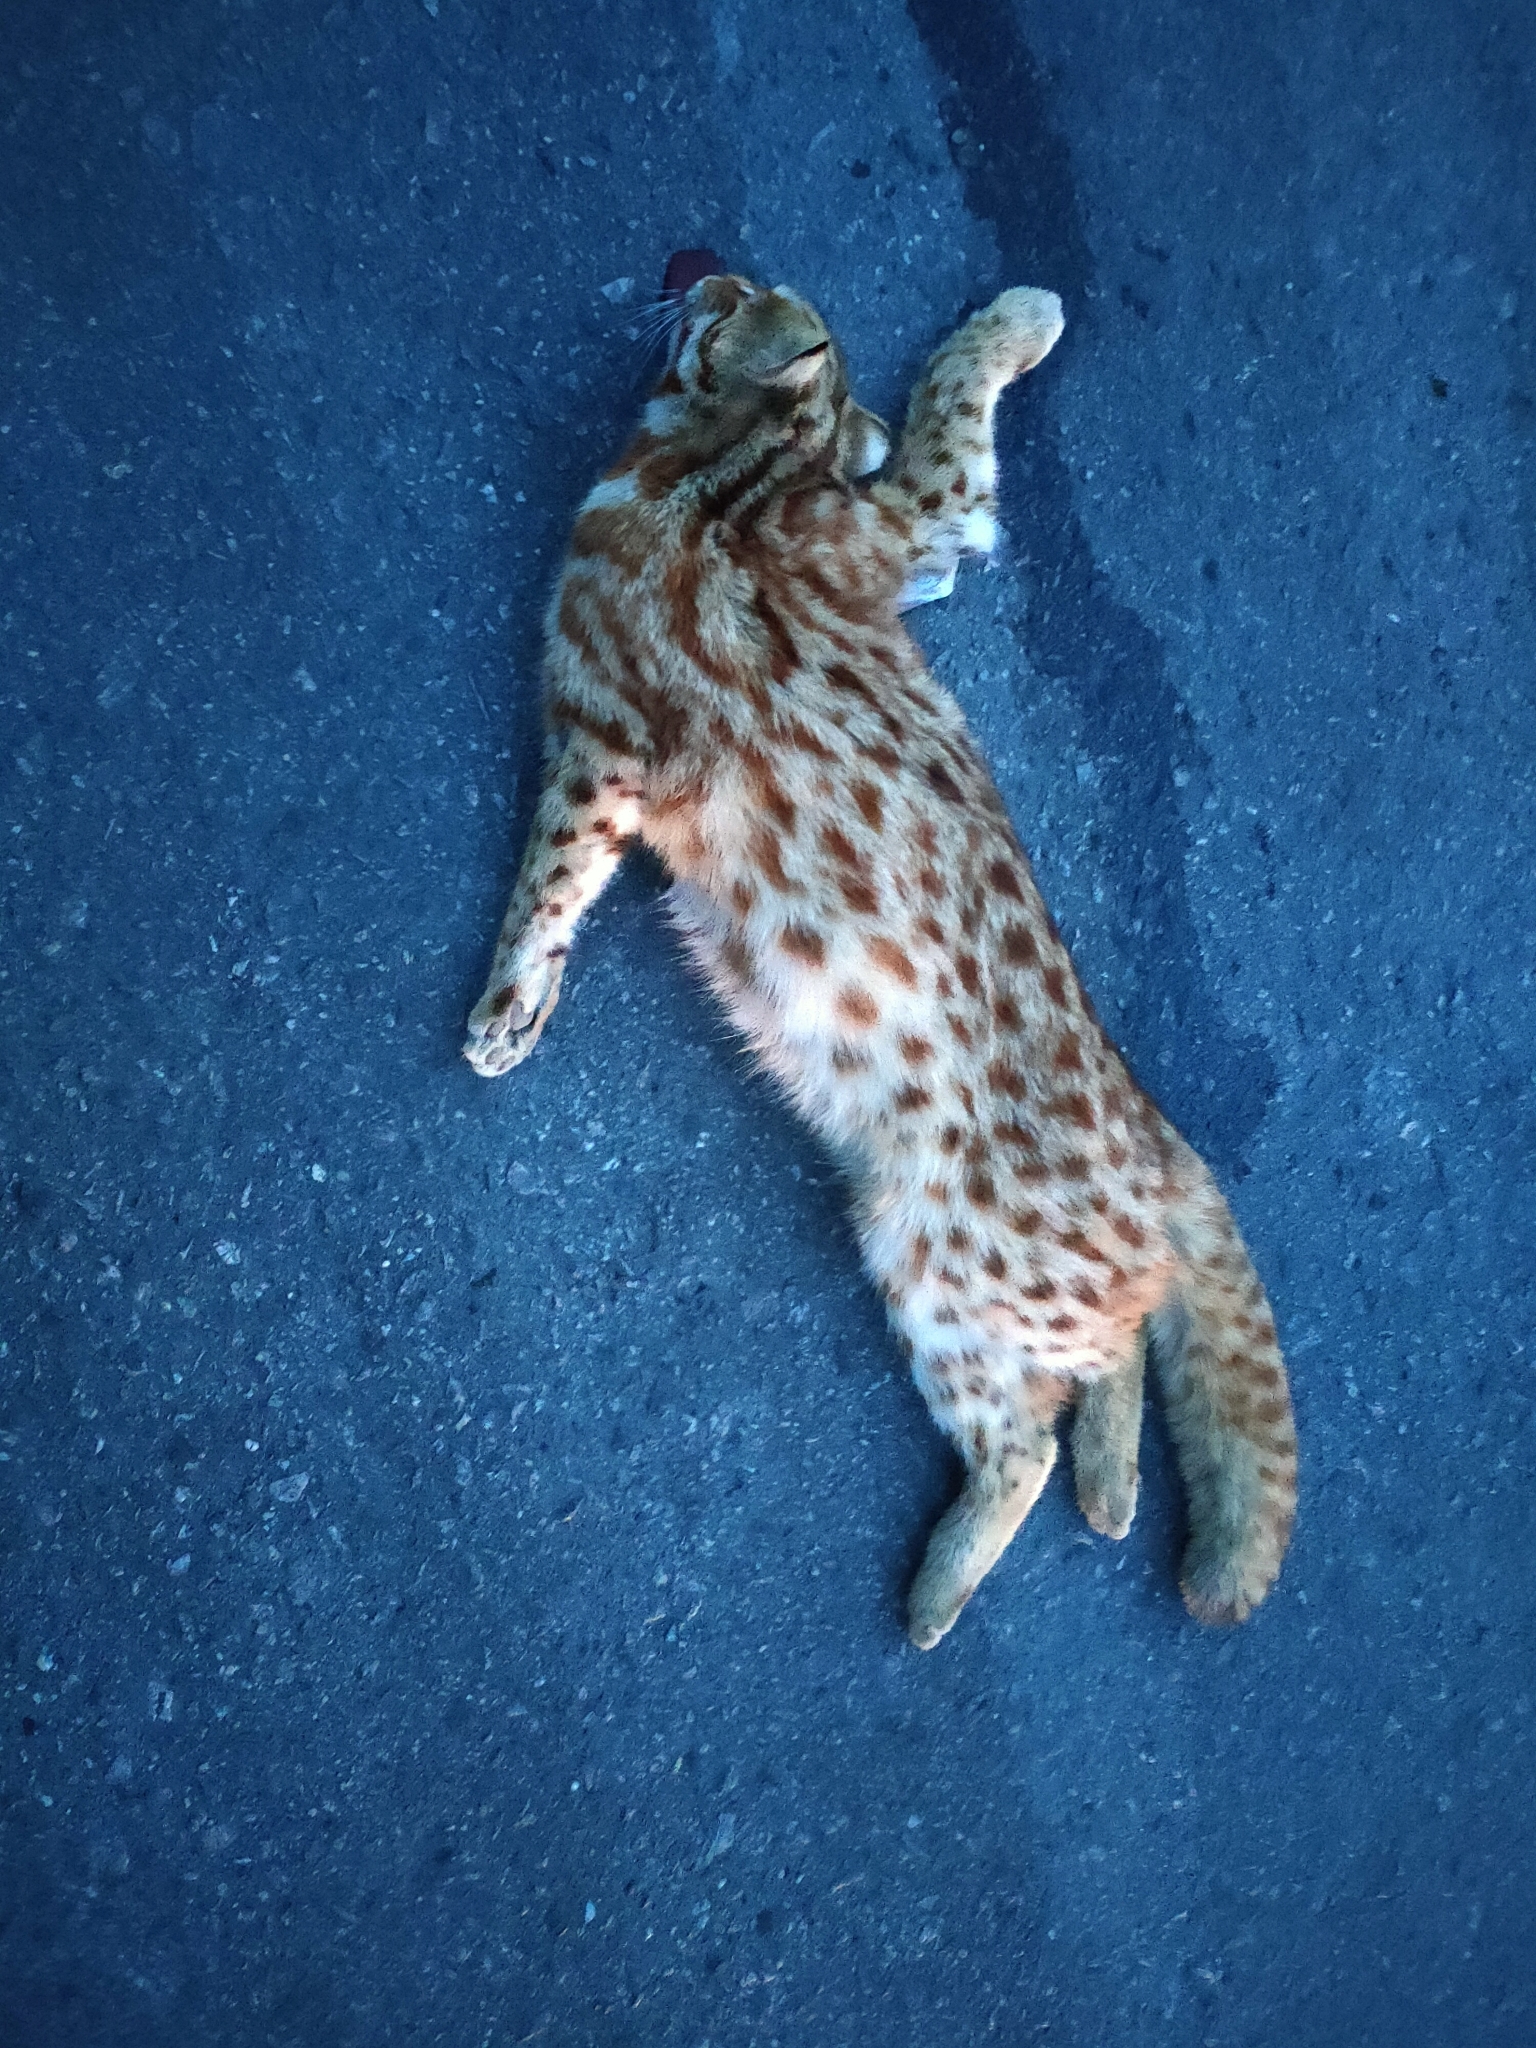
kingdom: Animalia
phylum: Chordata
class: Mammalia
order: Carnivora
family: Felidae
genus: Prionailurus
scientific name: Prionailurus bengalensis
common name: Leopard cat
